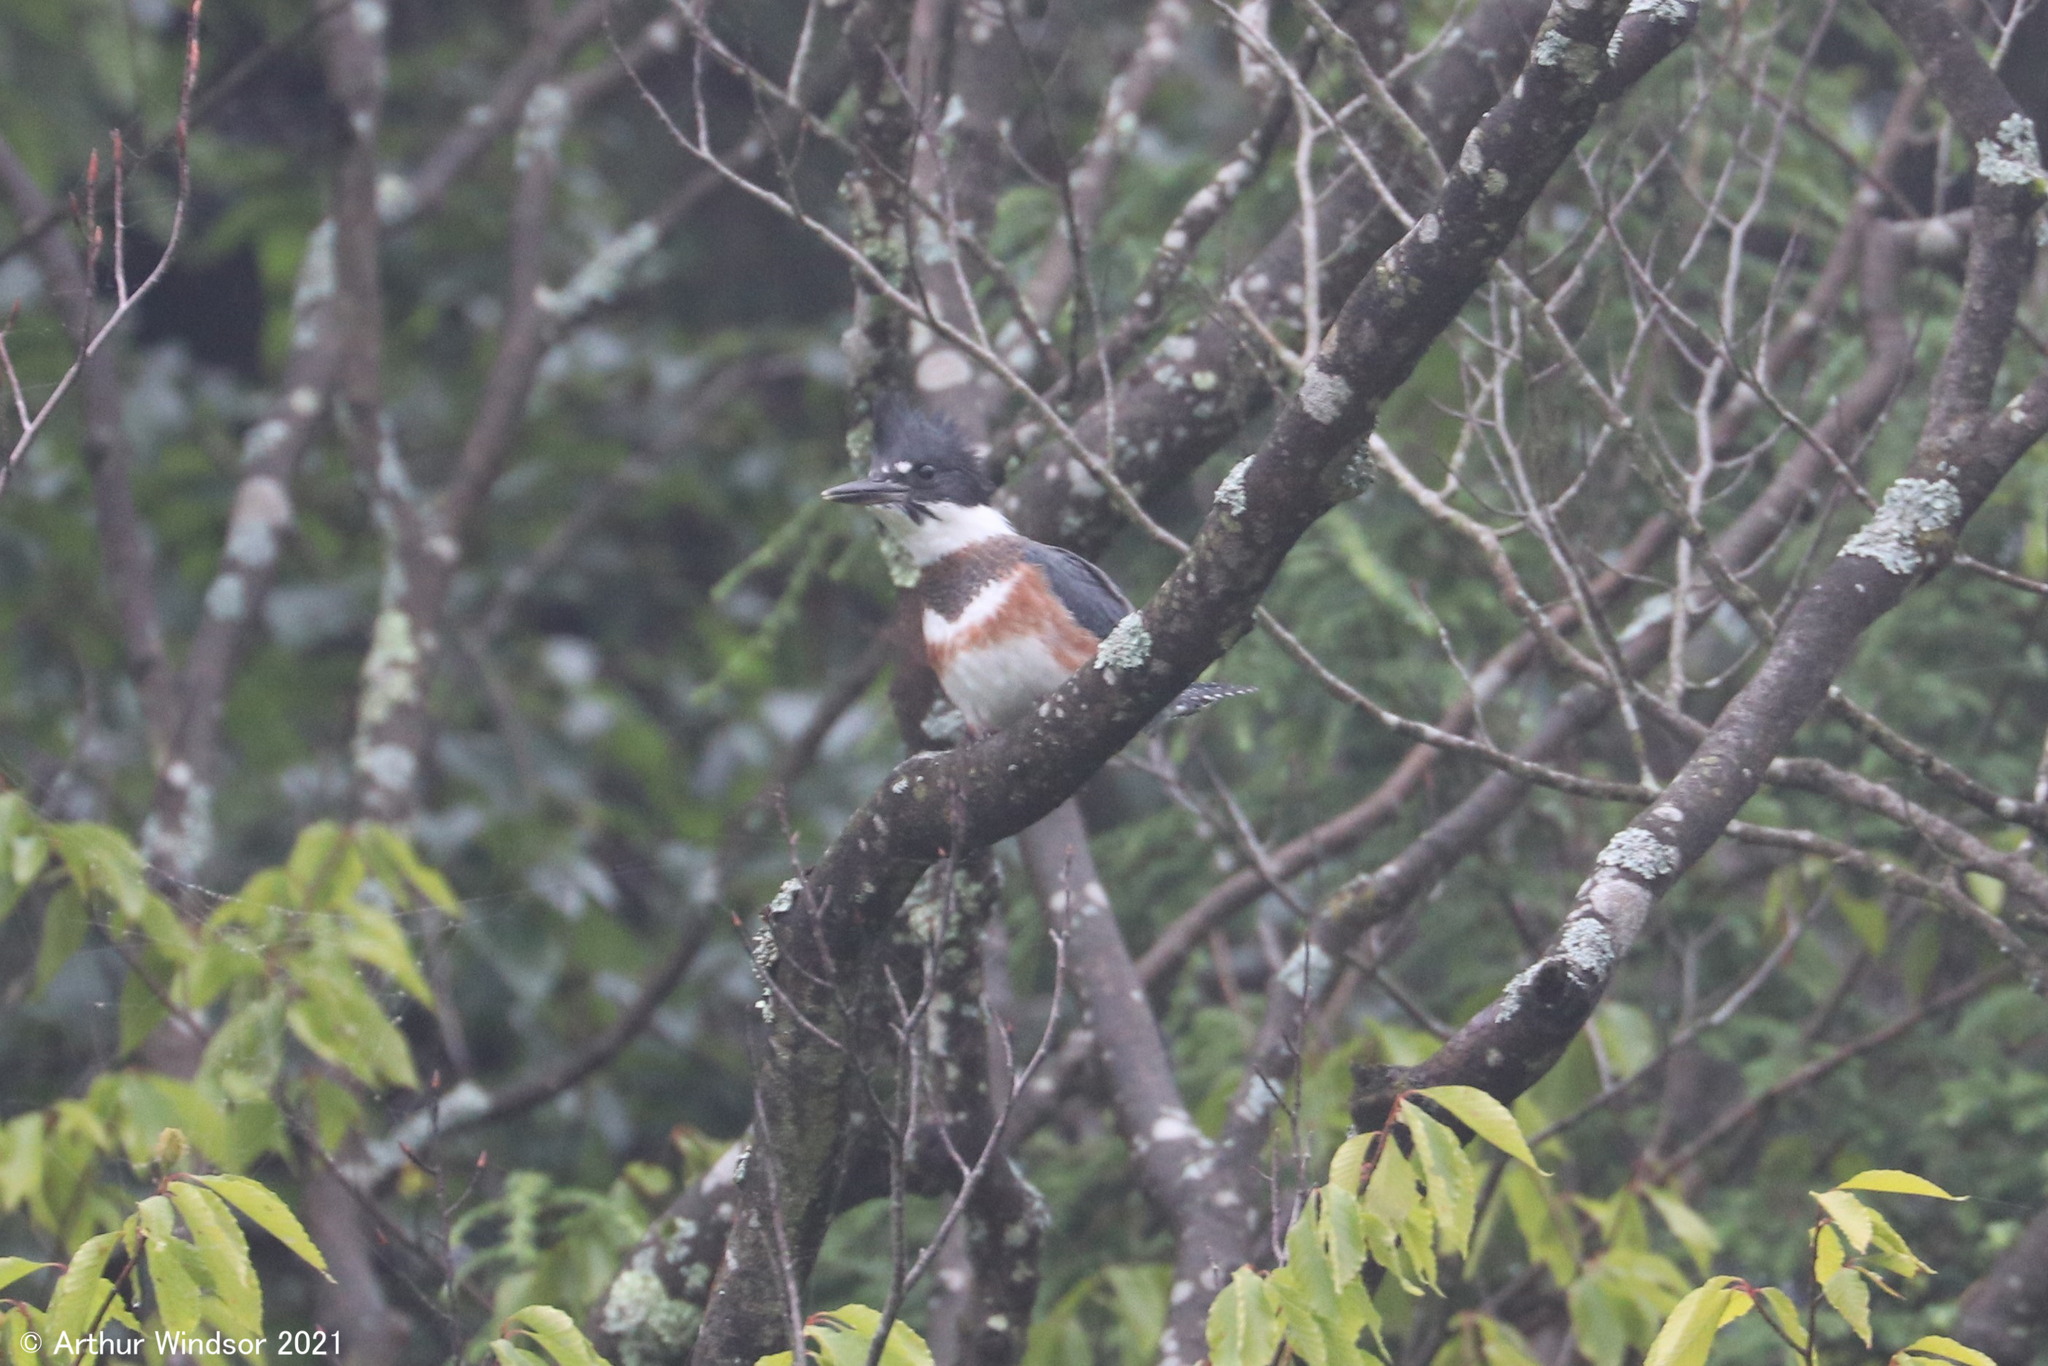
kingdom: Animalia
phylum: Chordata
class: Aves
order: Coraciiformes
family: Alcedinidae
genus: Megaceryle
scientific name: Megaceryle alcyon
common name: Belted kingfisher
